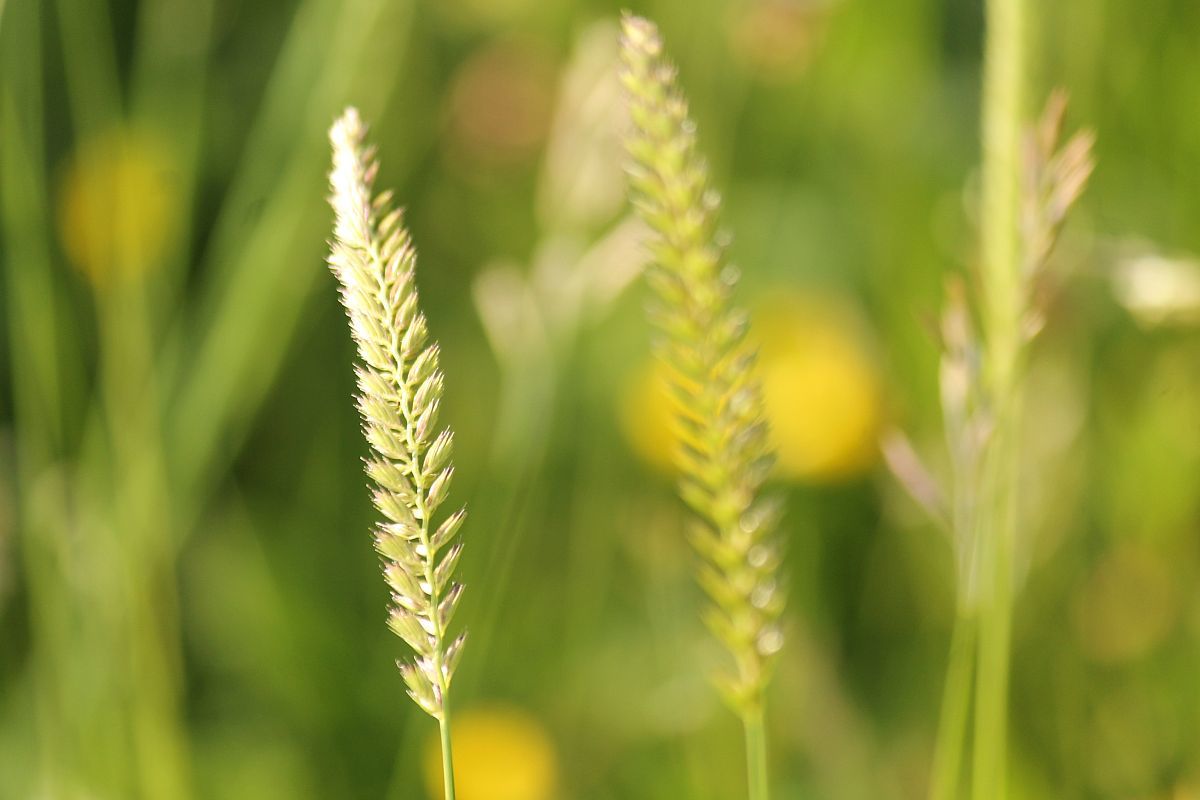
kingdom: Plantae
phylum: Tracheophyta
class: Liliopsida
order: Poales
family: Poaceae
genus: Cynosurus
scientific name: Cynosurus cristatus
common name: Crested dog's-tail
